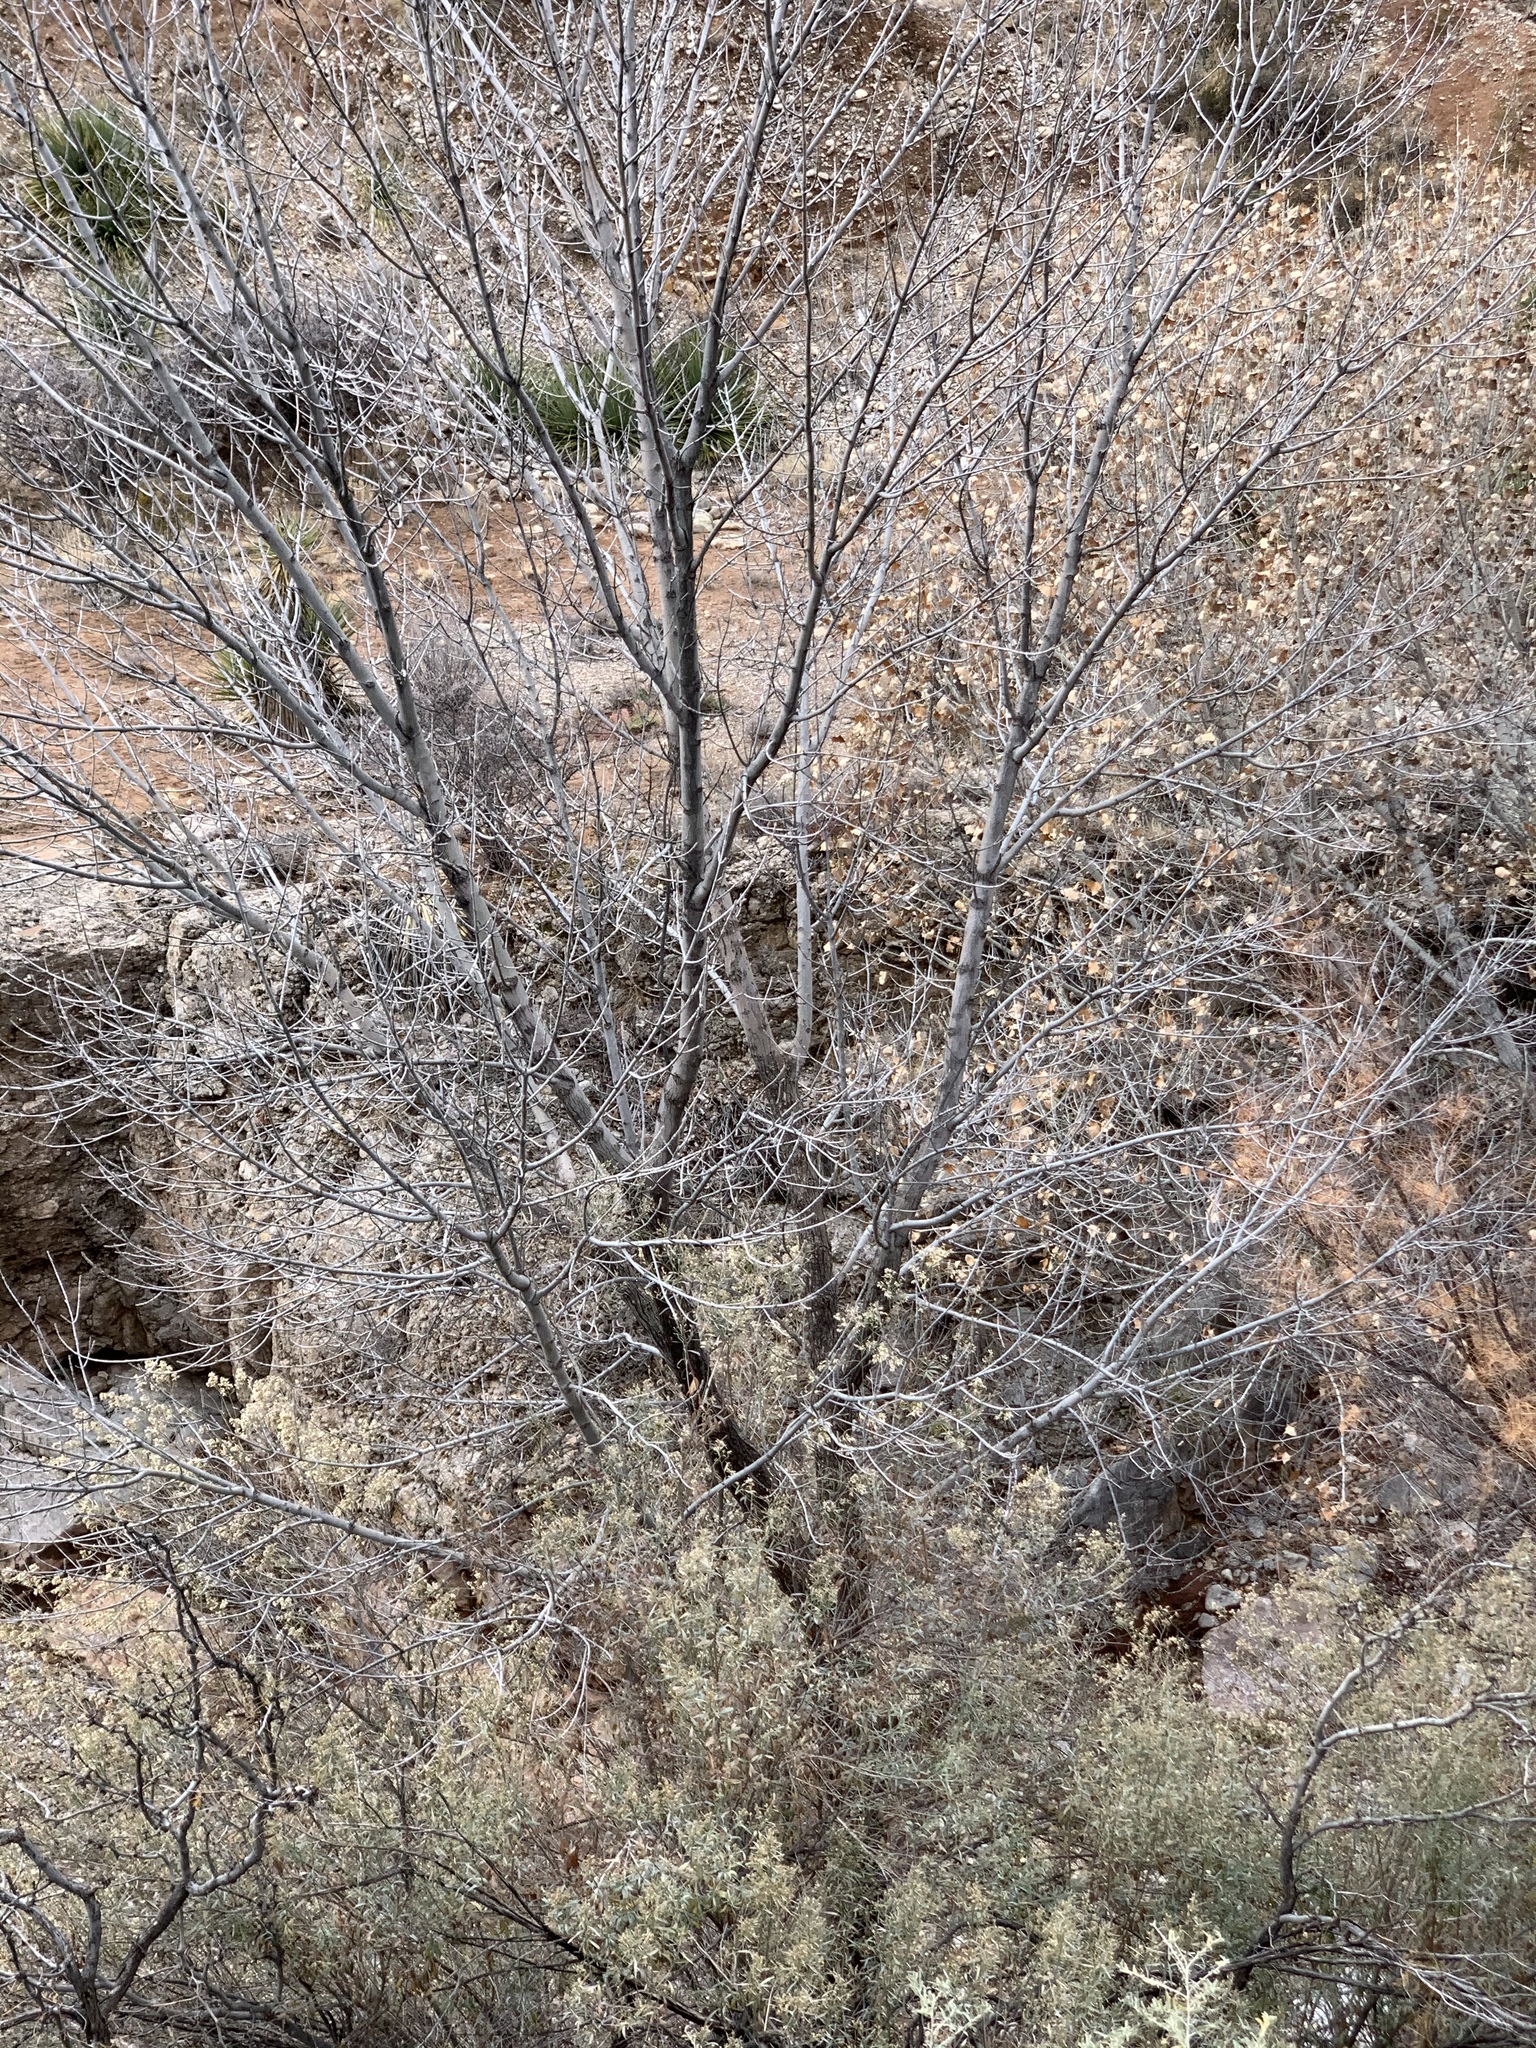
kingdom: Plantae
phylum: Tracheophyta
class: Magnoliopsida
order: Malpighiales
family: Salicaceae
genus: Populus
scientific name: Populus fremontii
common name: Fremont's cottonwood
